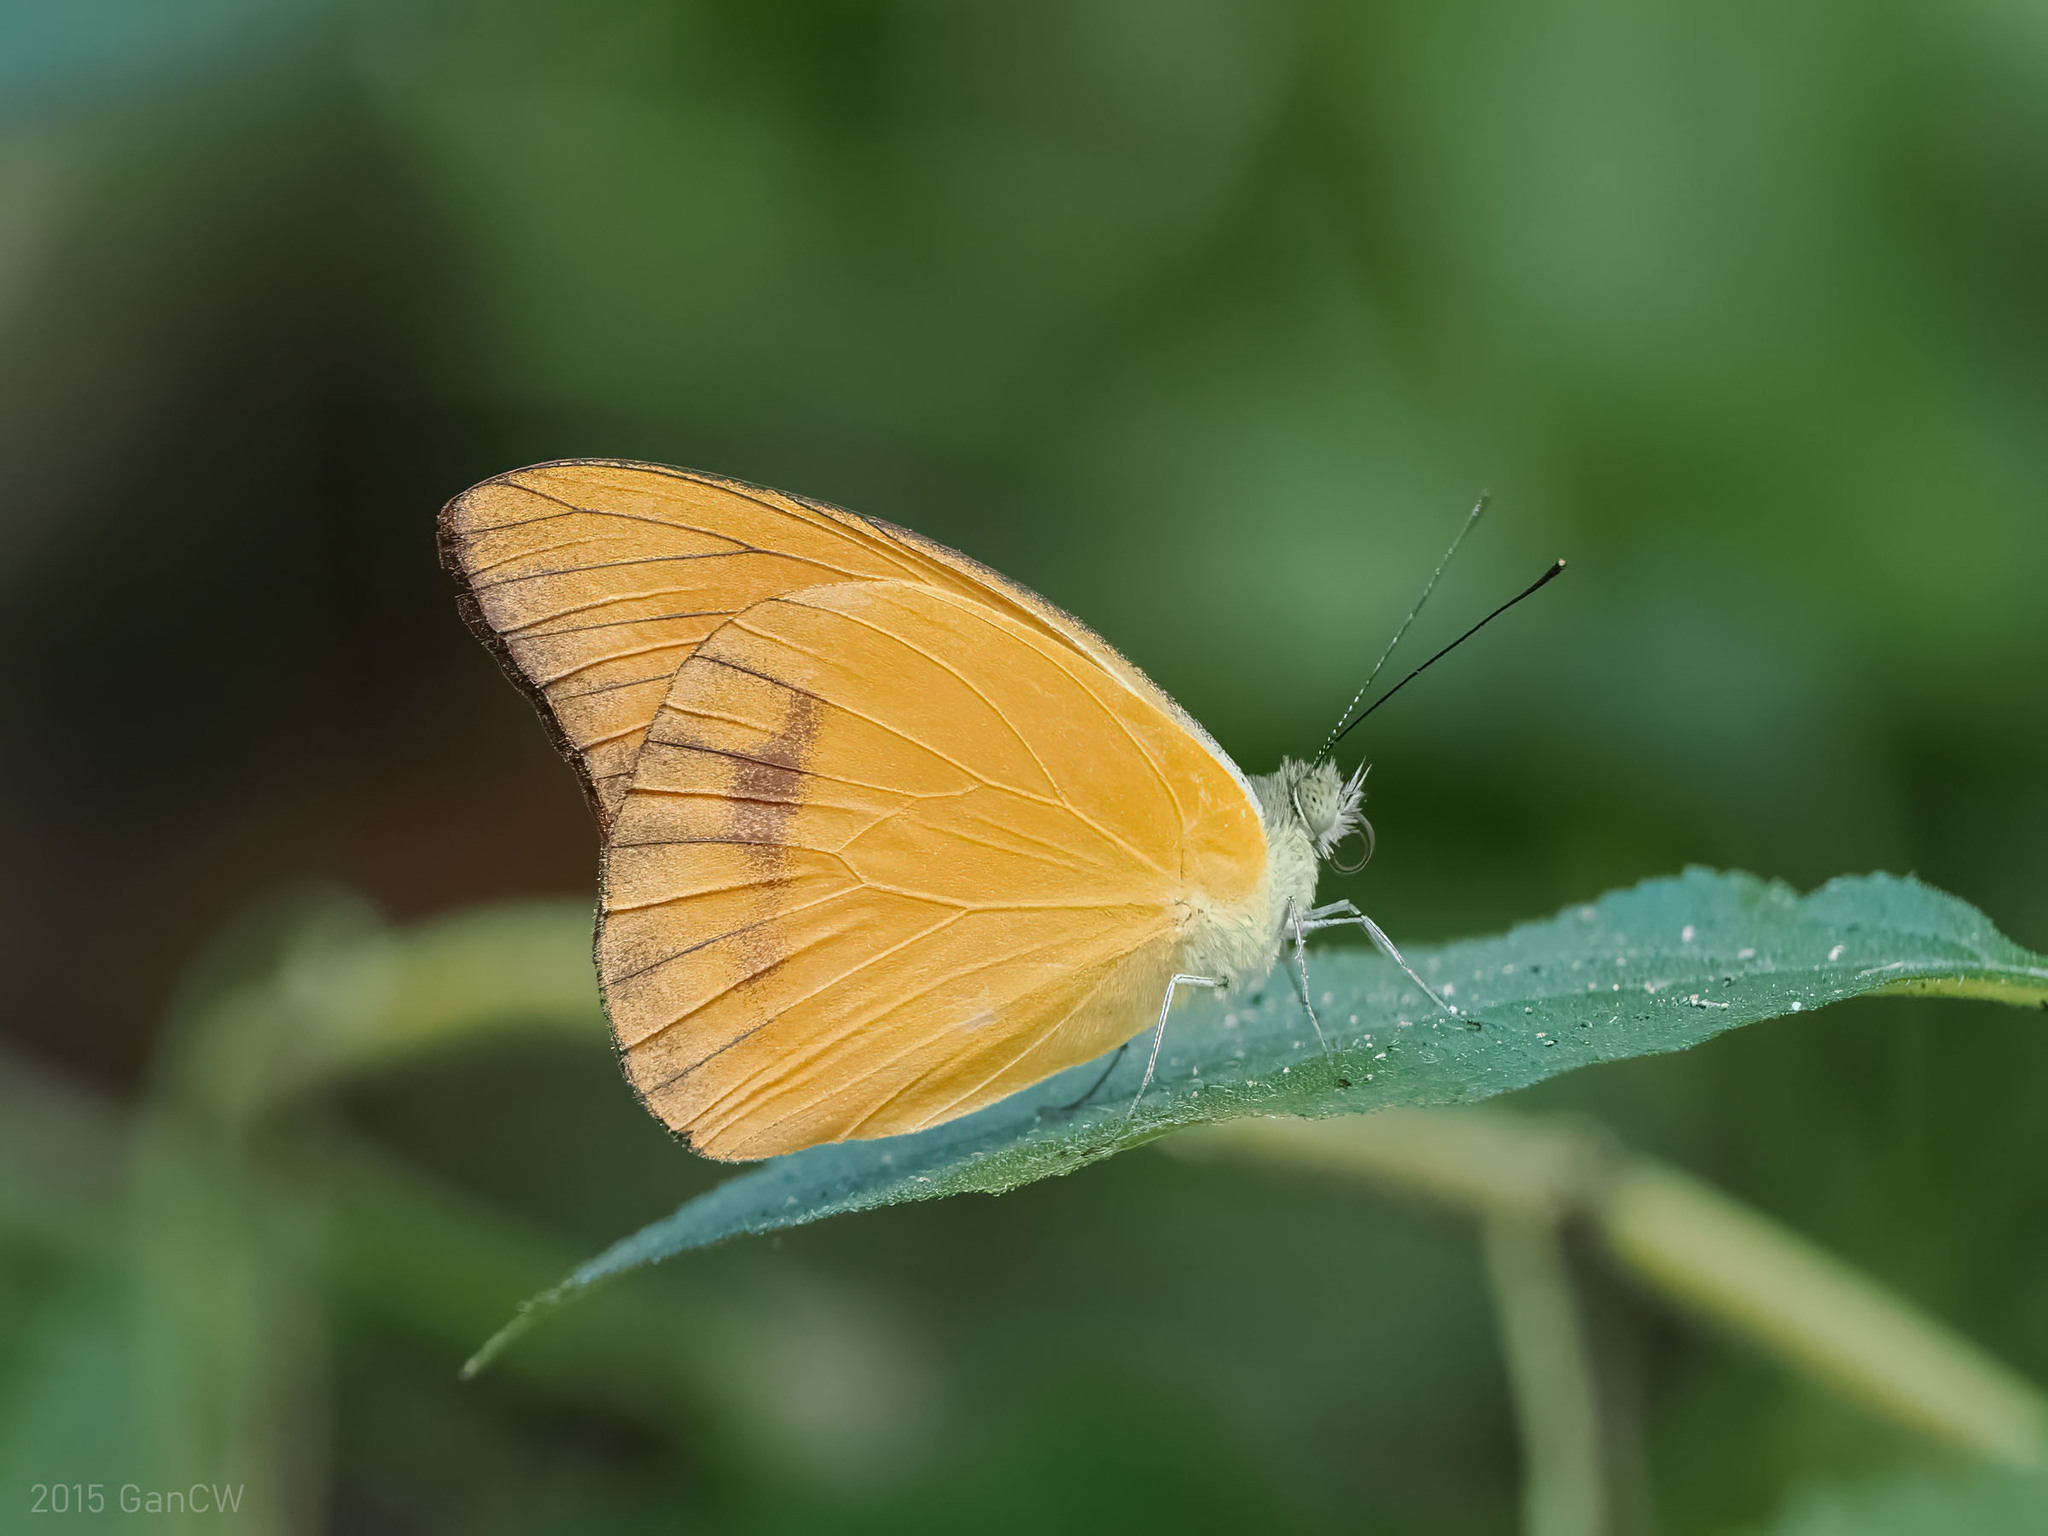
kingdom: Animalia
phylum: Arthropoda
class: Insecta
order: Lepidoptera
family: Pieridae
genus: Appias
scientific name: Appias nero
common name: Orange albatross
